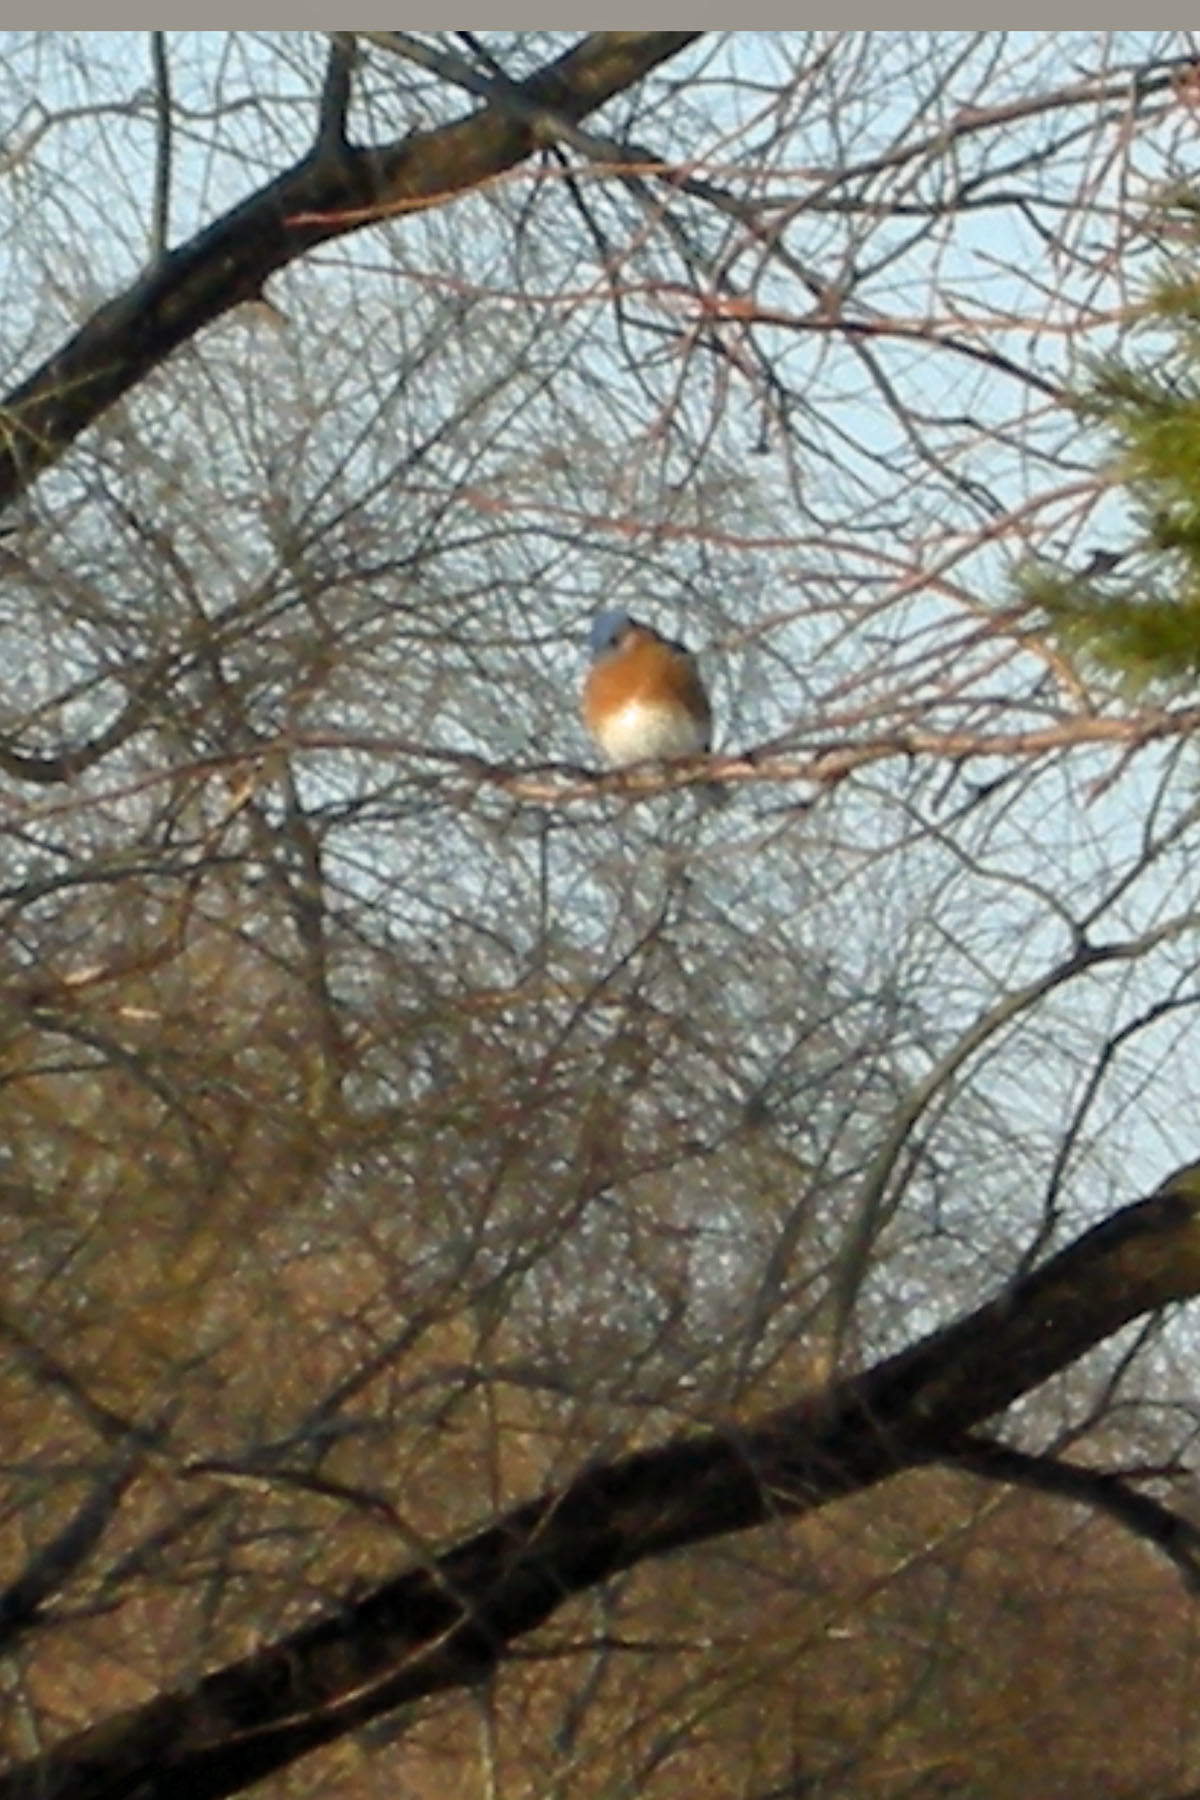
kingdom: Animalia
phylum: Chordata
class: Aves
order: Passeriformes
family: Turdidae
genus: Sialia
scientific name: Sialia sialis
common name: Eastern bluebird
